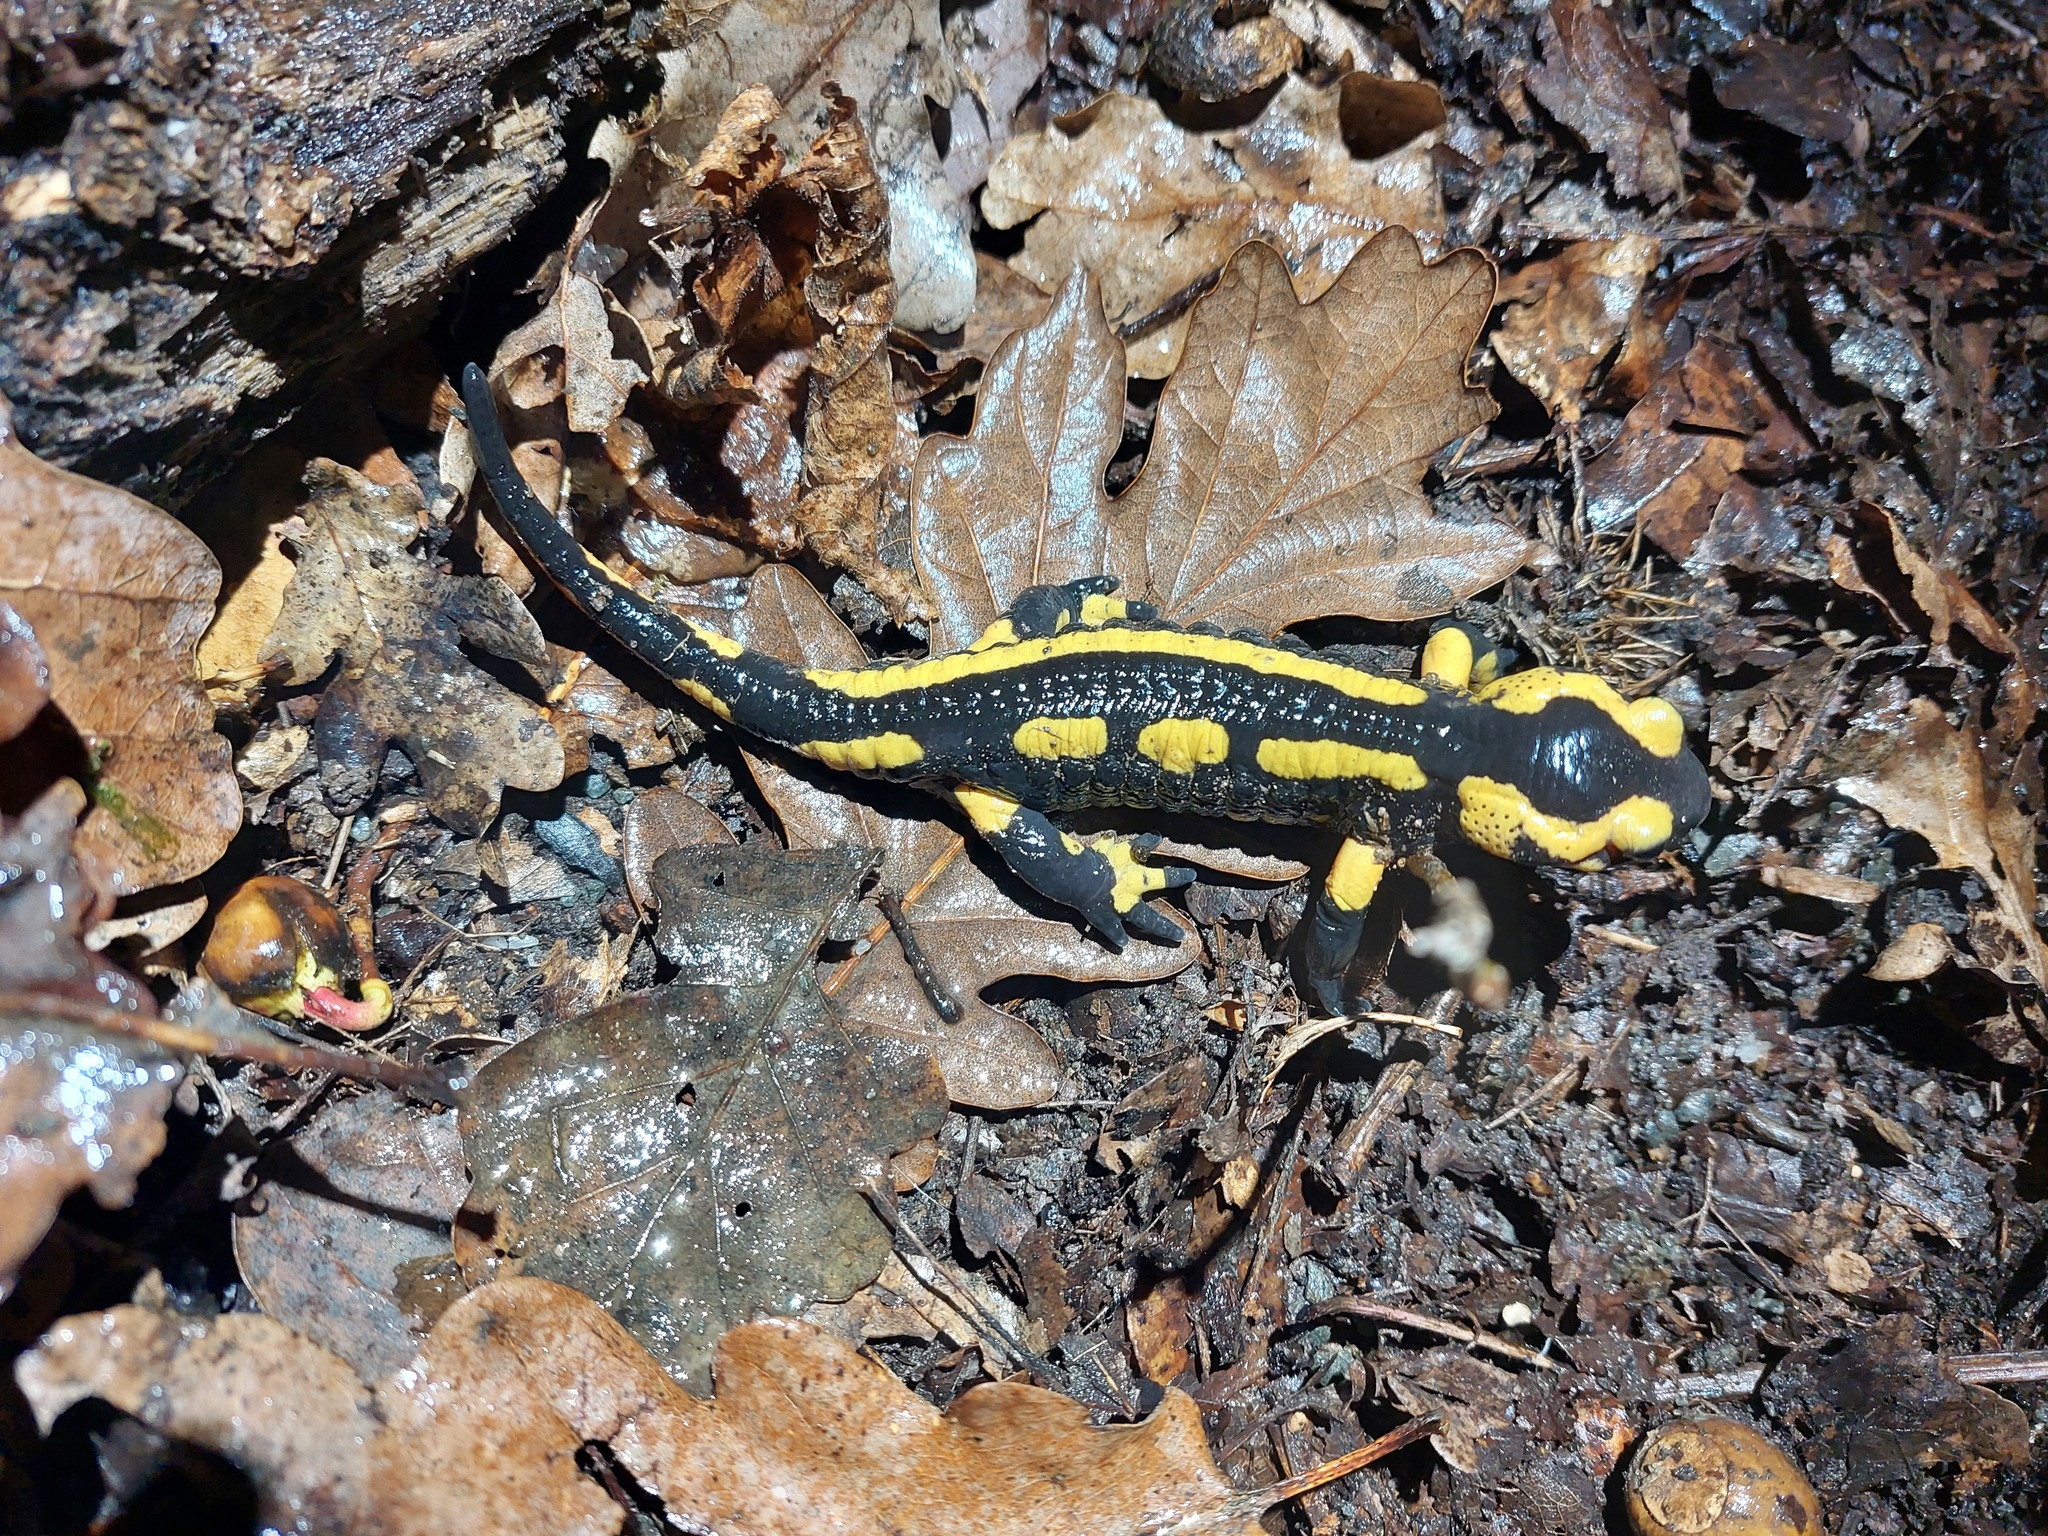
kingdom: Animalia
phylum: Chordata
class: Amphibia
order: Caudata
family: Salamandridae
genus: Salamandra
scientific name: Salamandra salamandra
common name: Fire salamander
